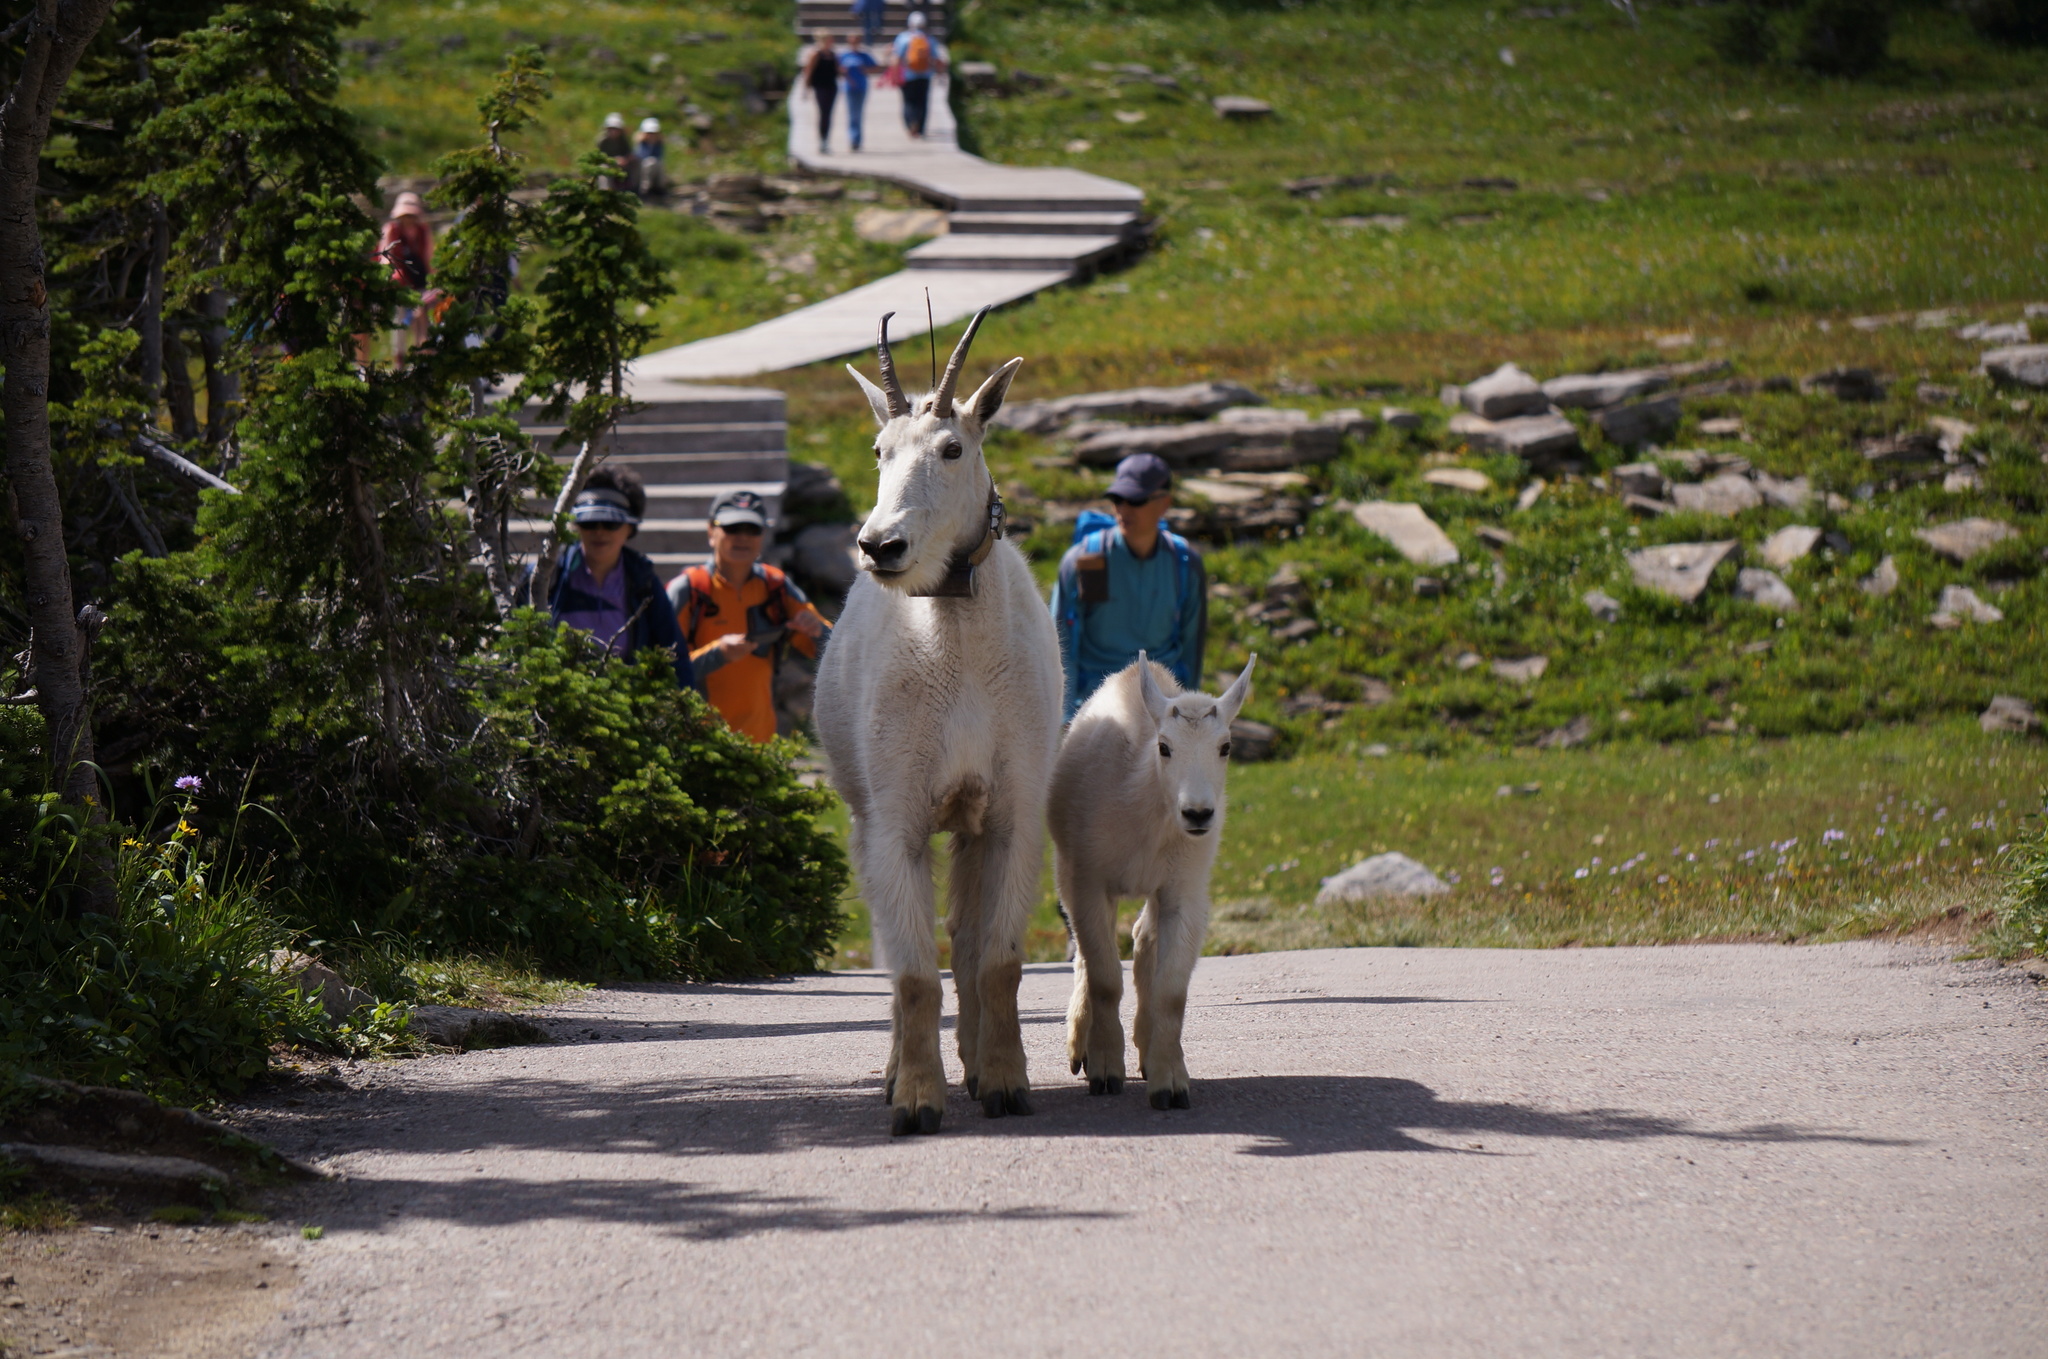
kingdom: Animalia
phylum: Chordata
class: Mammalia
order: Artiodactyla
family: Bovidae
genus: Oreamnos
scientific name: Oreamnos americanus
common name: Mountain goat
